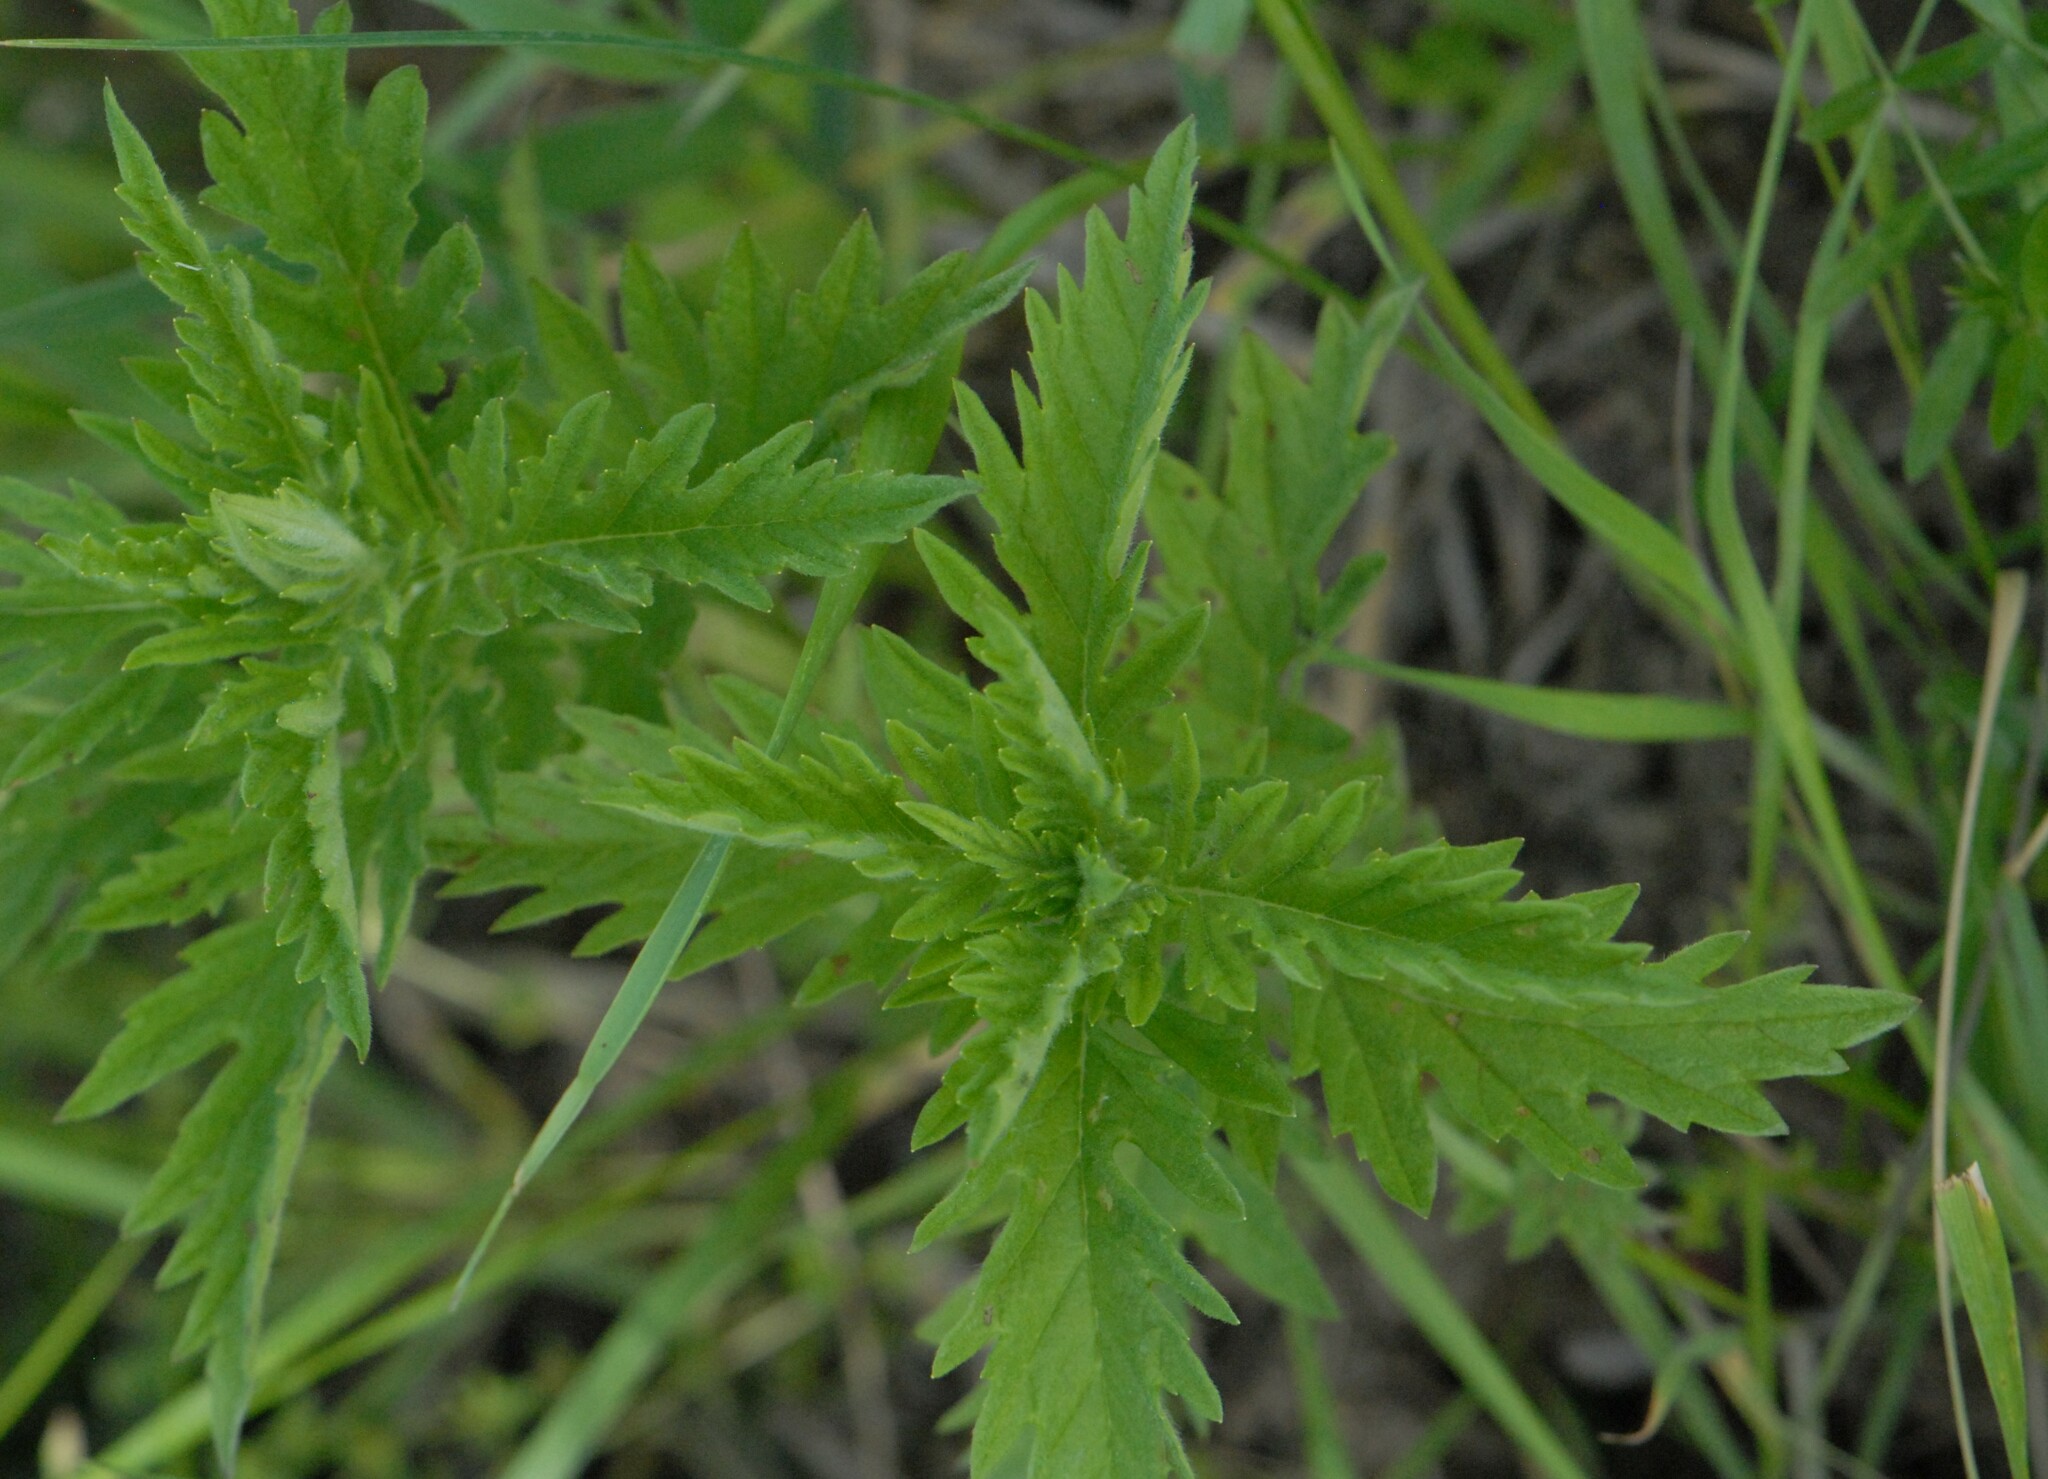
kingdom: Plantae
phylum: Tracheophyta
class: Magnoliopsida
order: Lamiales
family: Lamiaceae
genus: Lycopus
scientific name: Lycopus exaltatus
